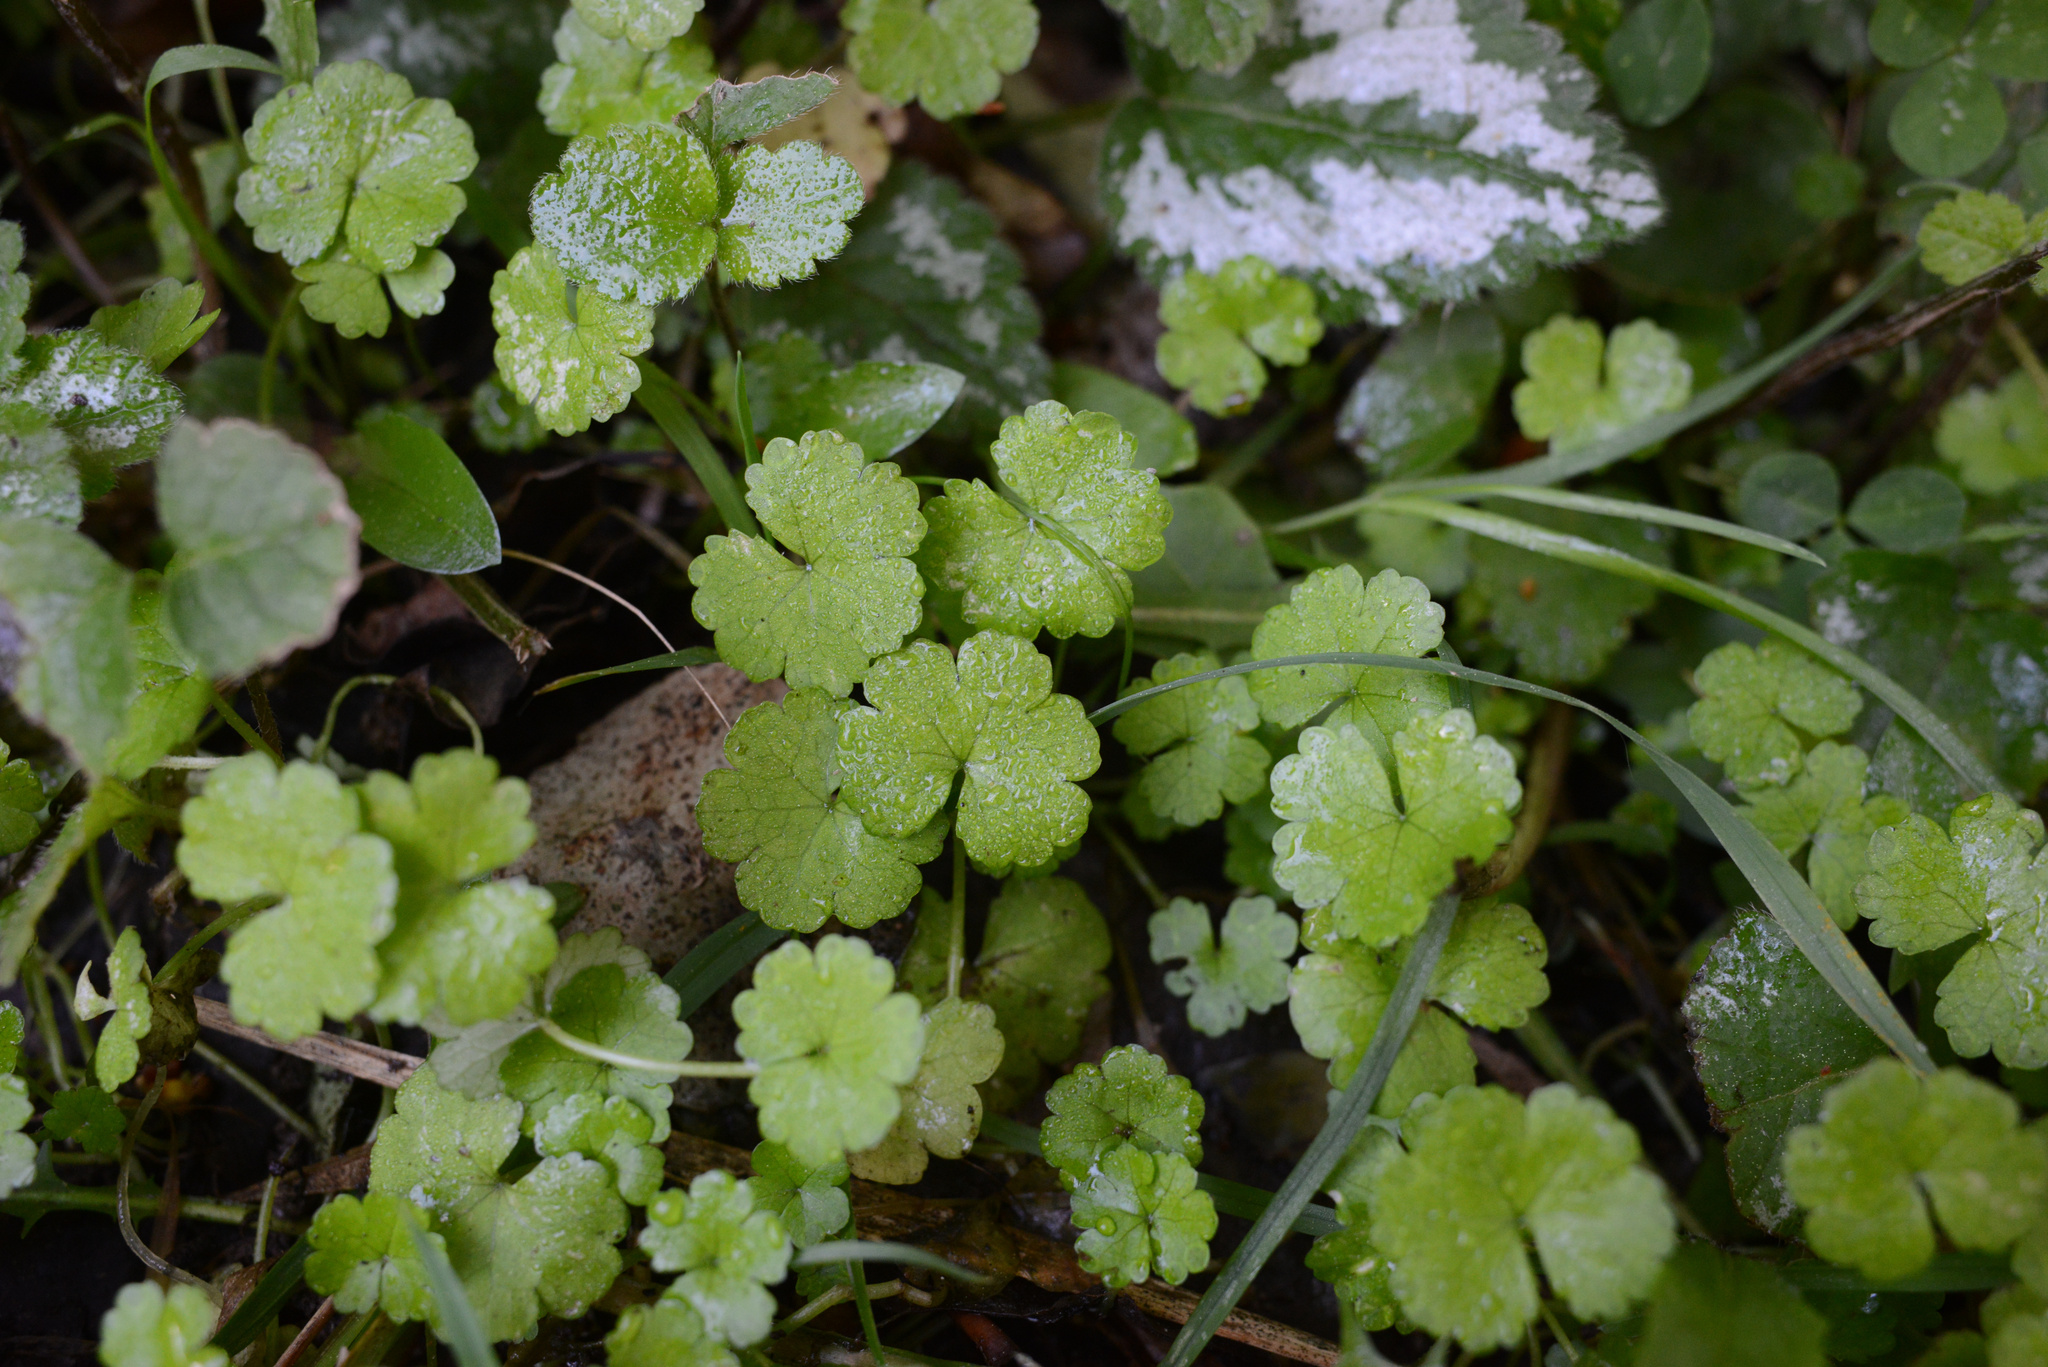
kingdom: Plantae
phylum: Tracheophyta
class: Magnoliopsida
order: Apiales
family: Araliaceae
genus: Hydrocotyle
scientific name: Hydrocotyle heteromeria
